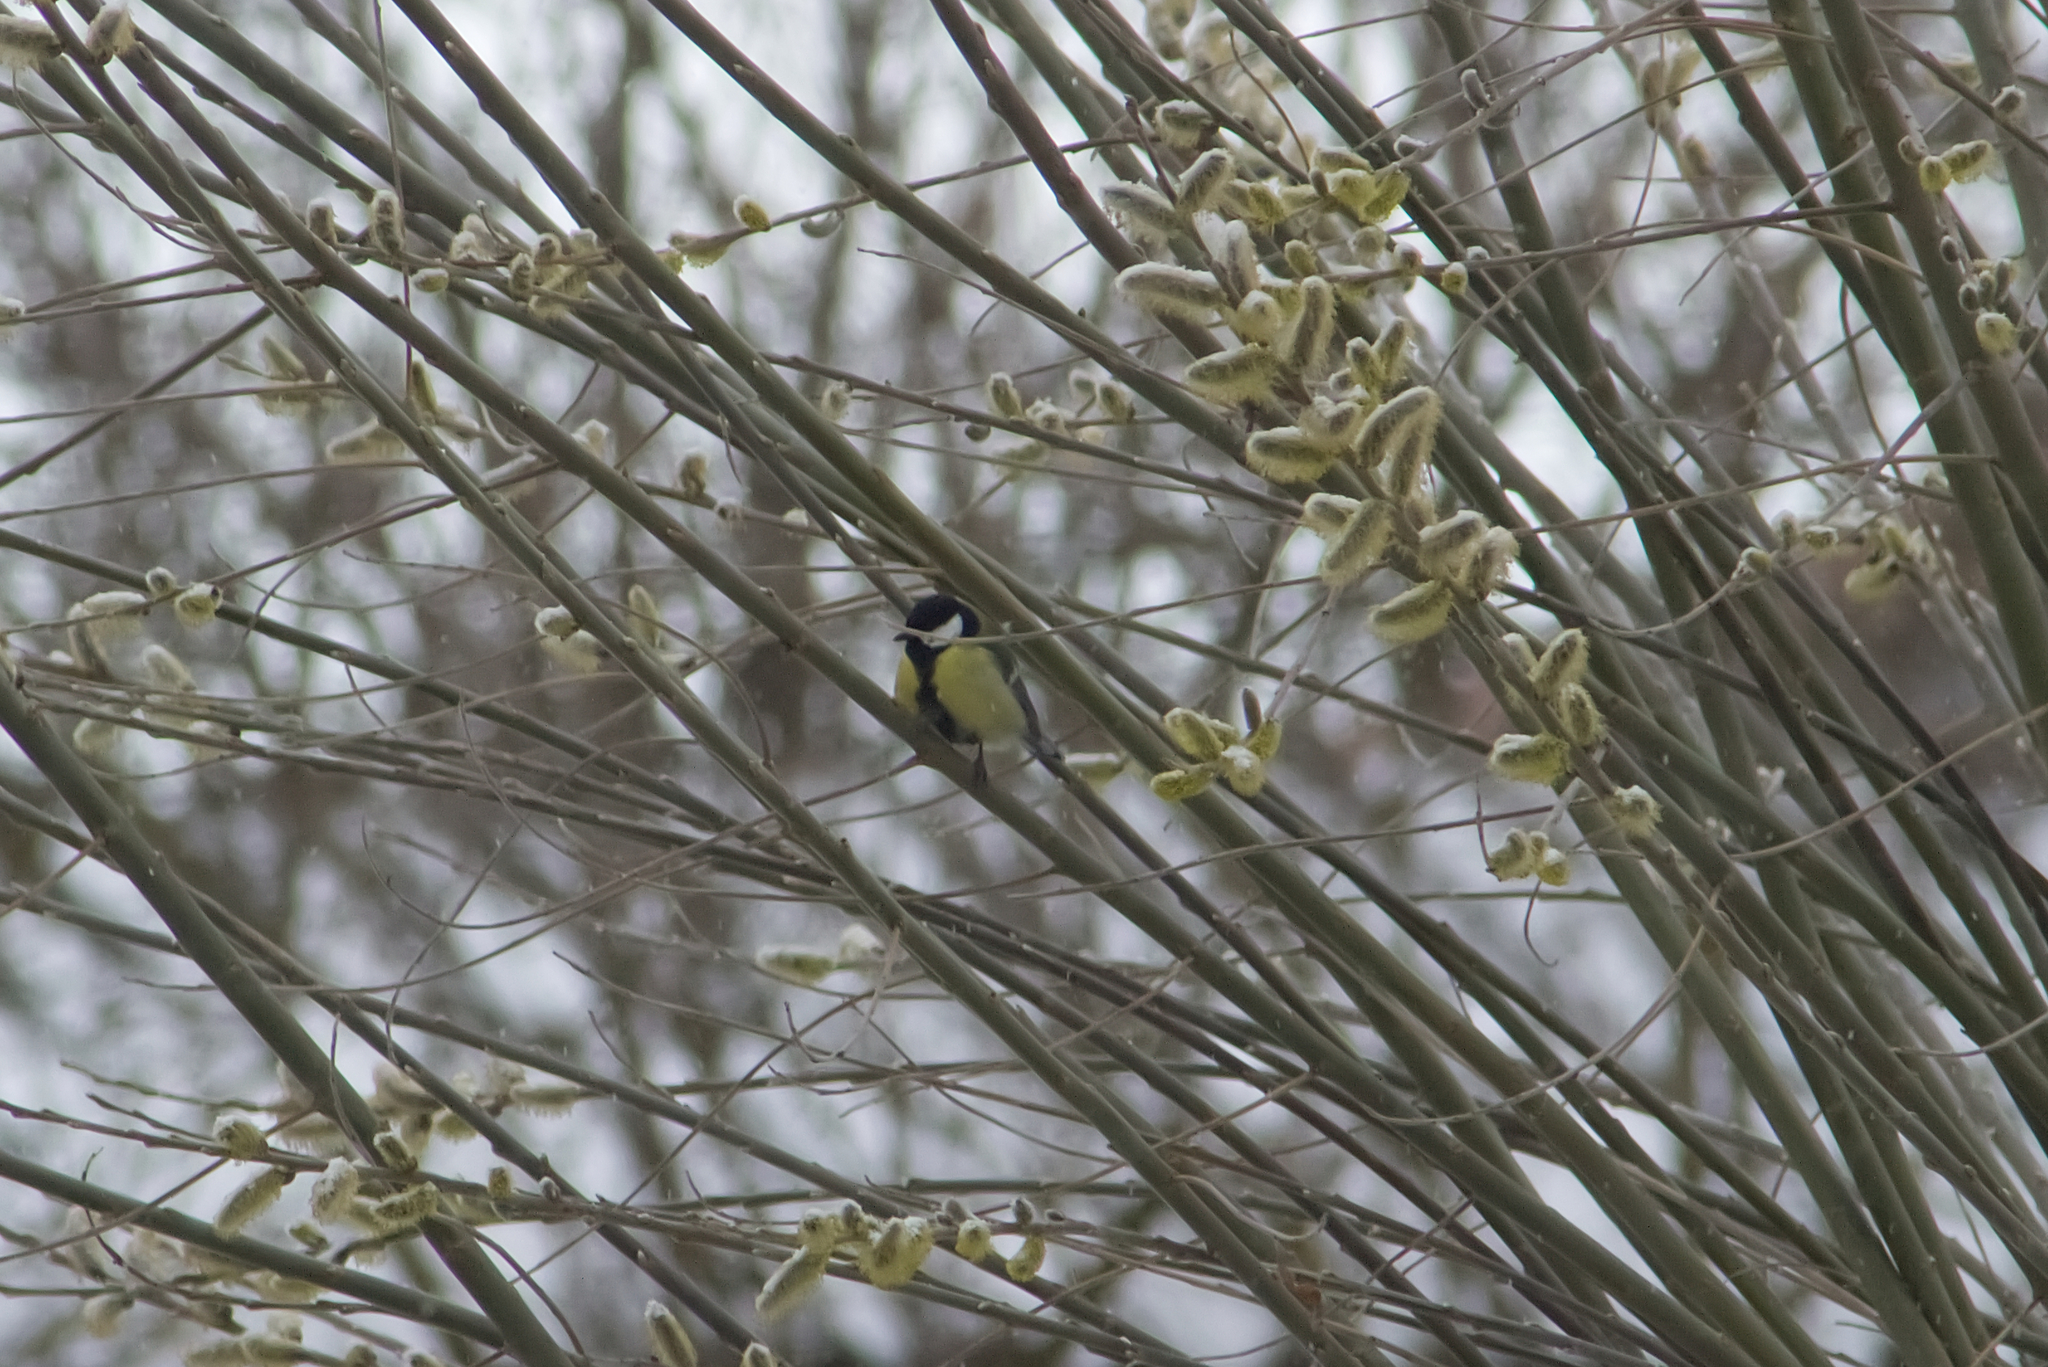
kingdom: Animalia
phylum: Chordata
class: Aves
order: Passeriformes
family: Paridae
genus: Parus
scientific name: Parus major
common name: Great tit
